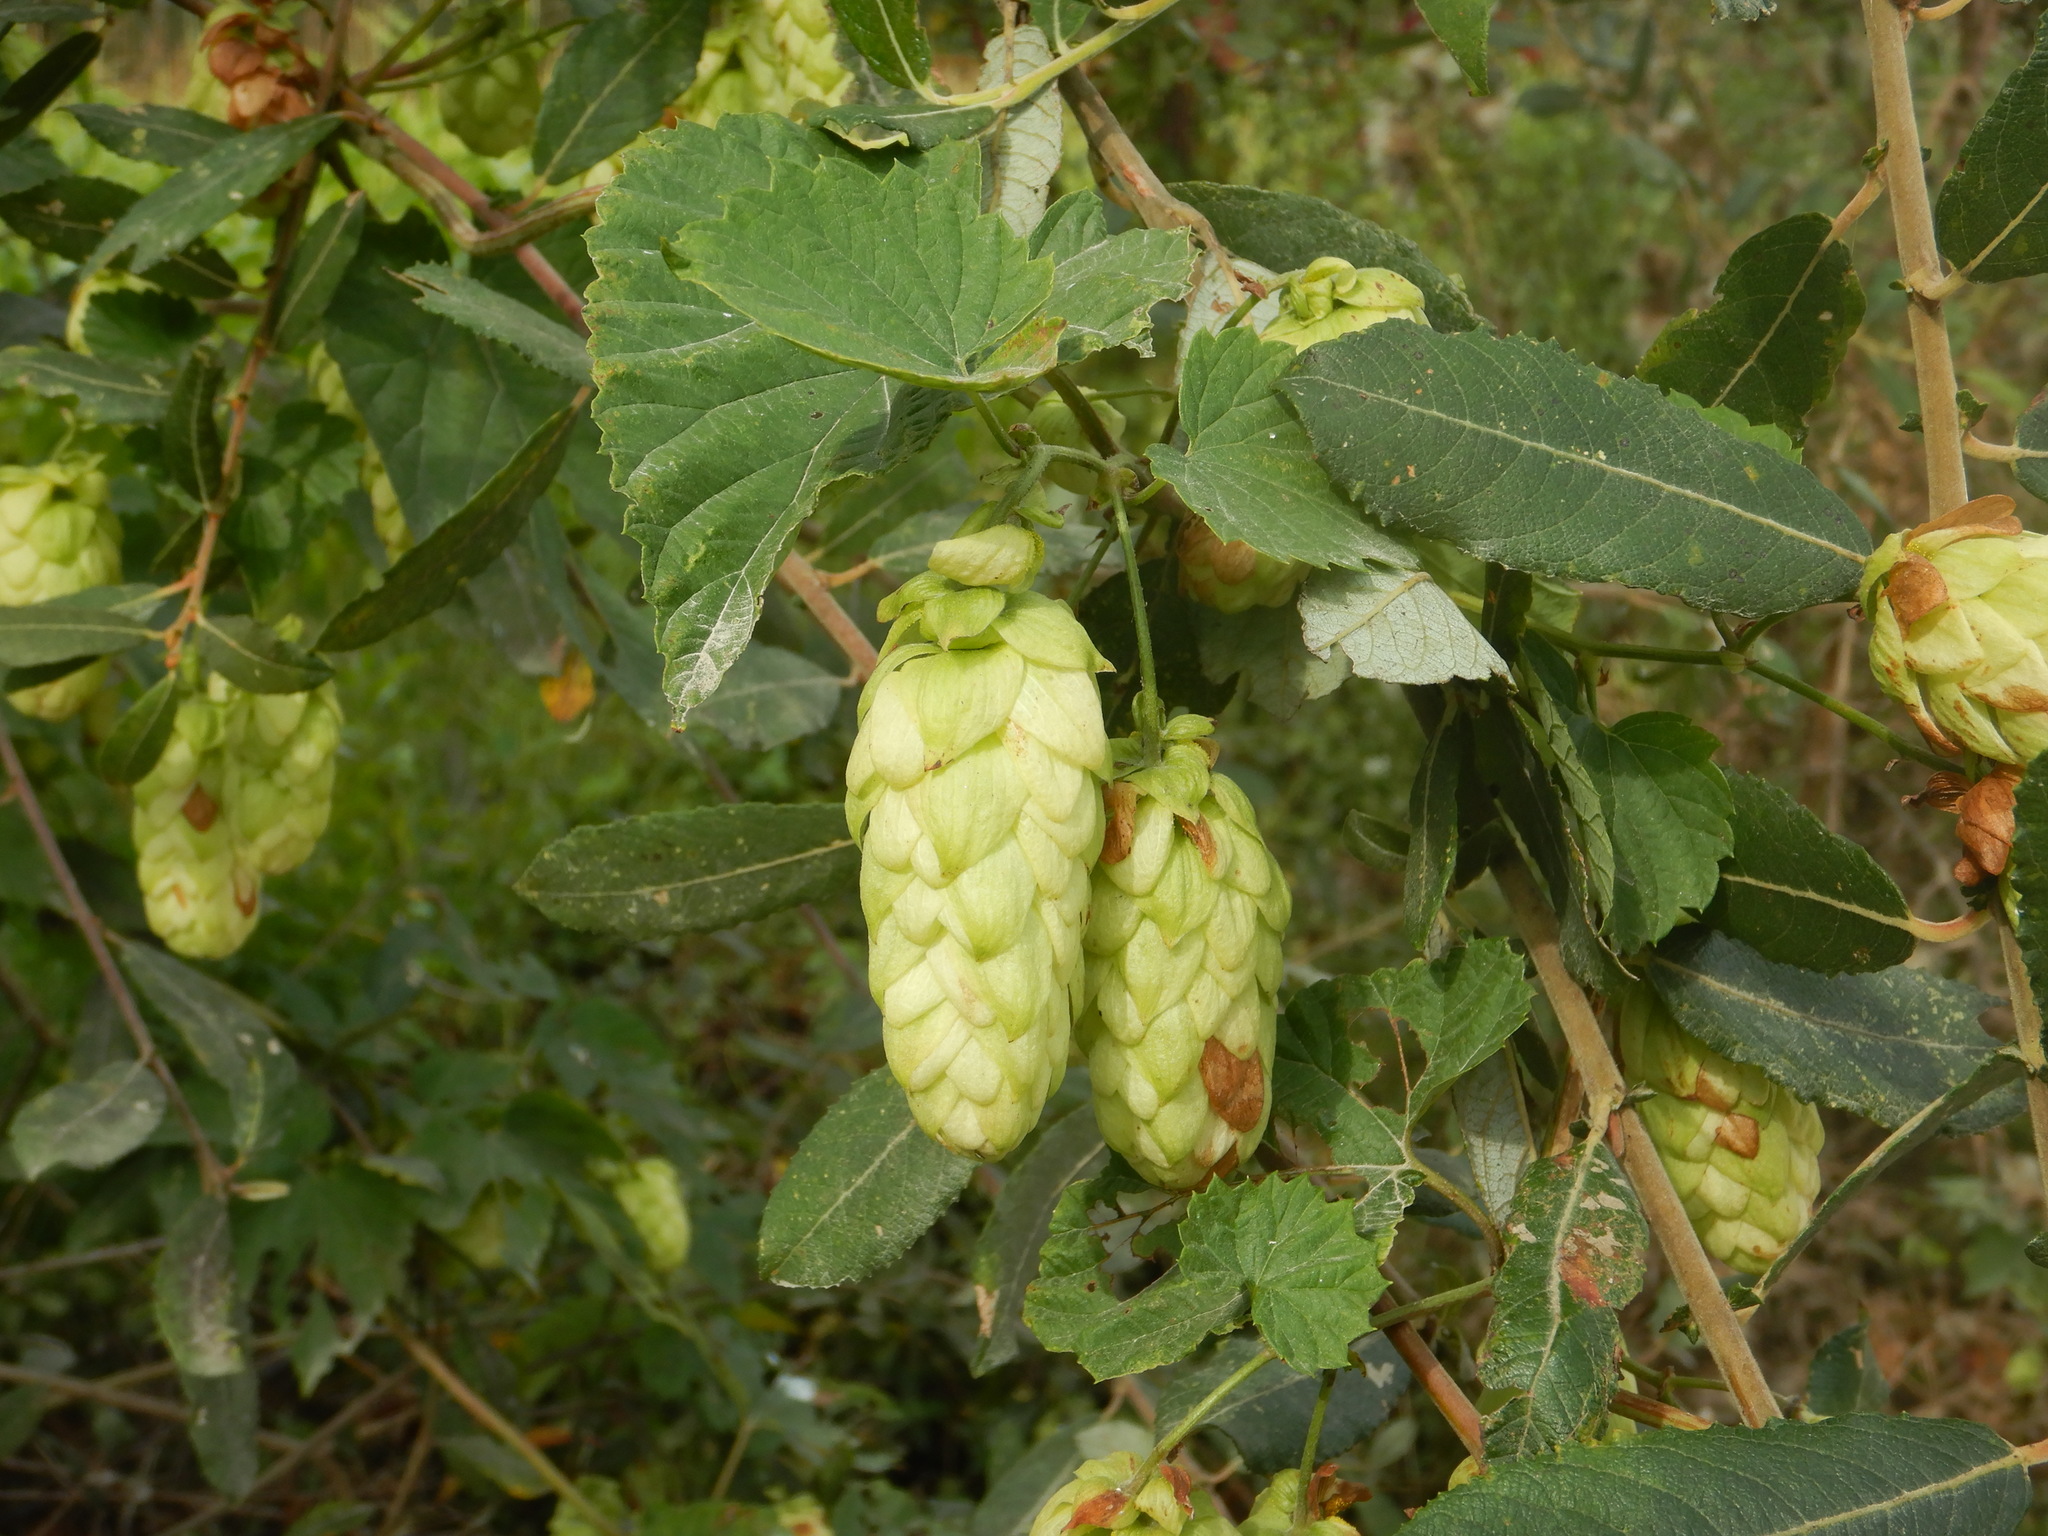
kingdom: Plantae
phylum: Tracheophyta
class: Magnoliopsida
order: Rosales
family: Cannabaceae
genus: Humulus
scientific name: Humulus lupulus
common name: Hop
